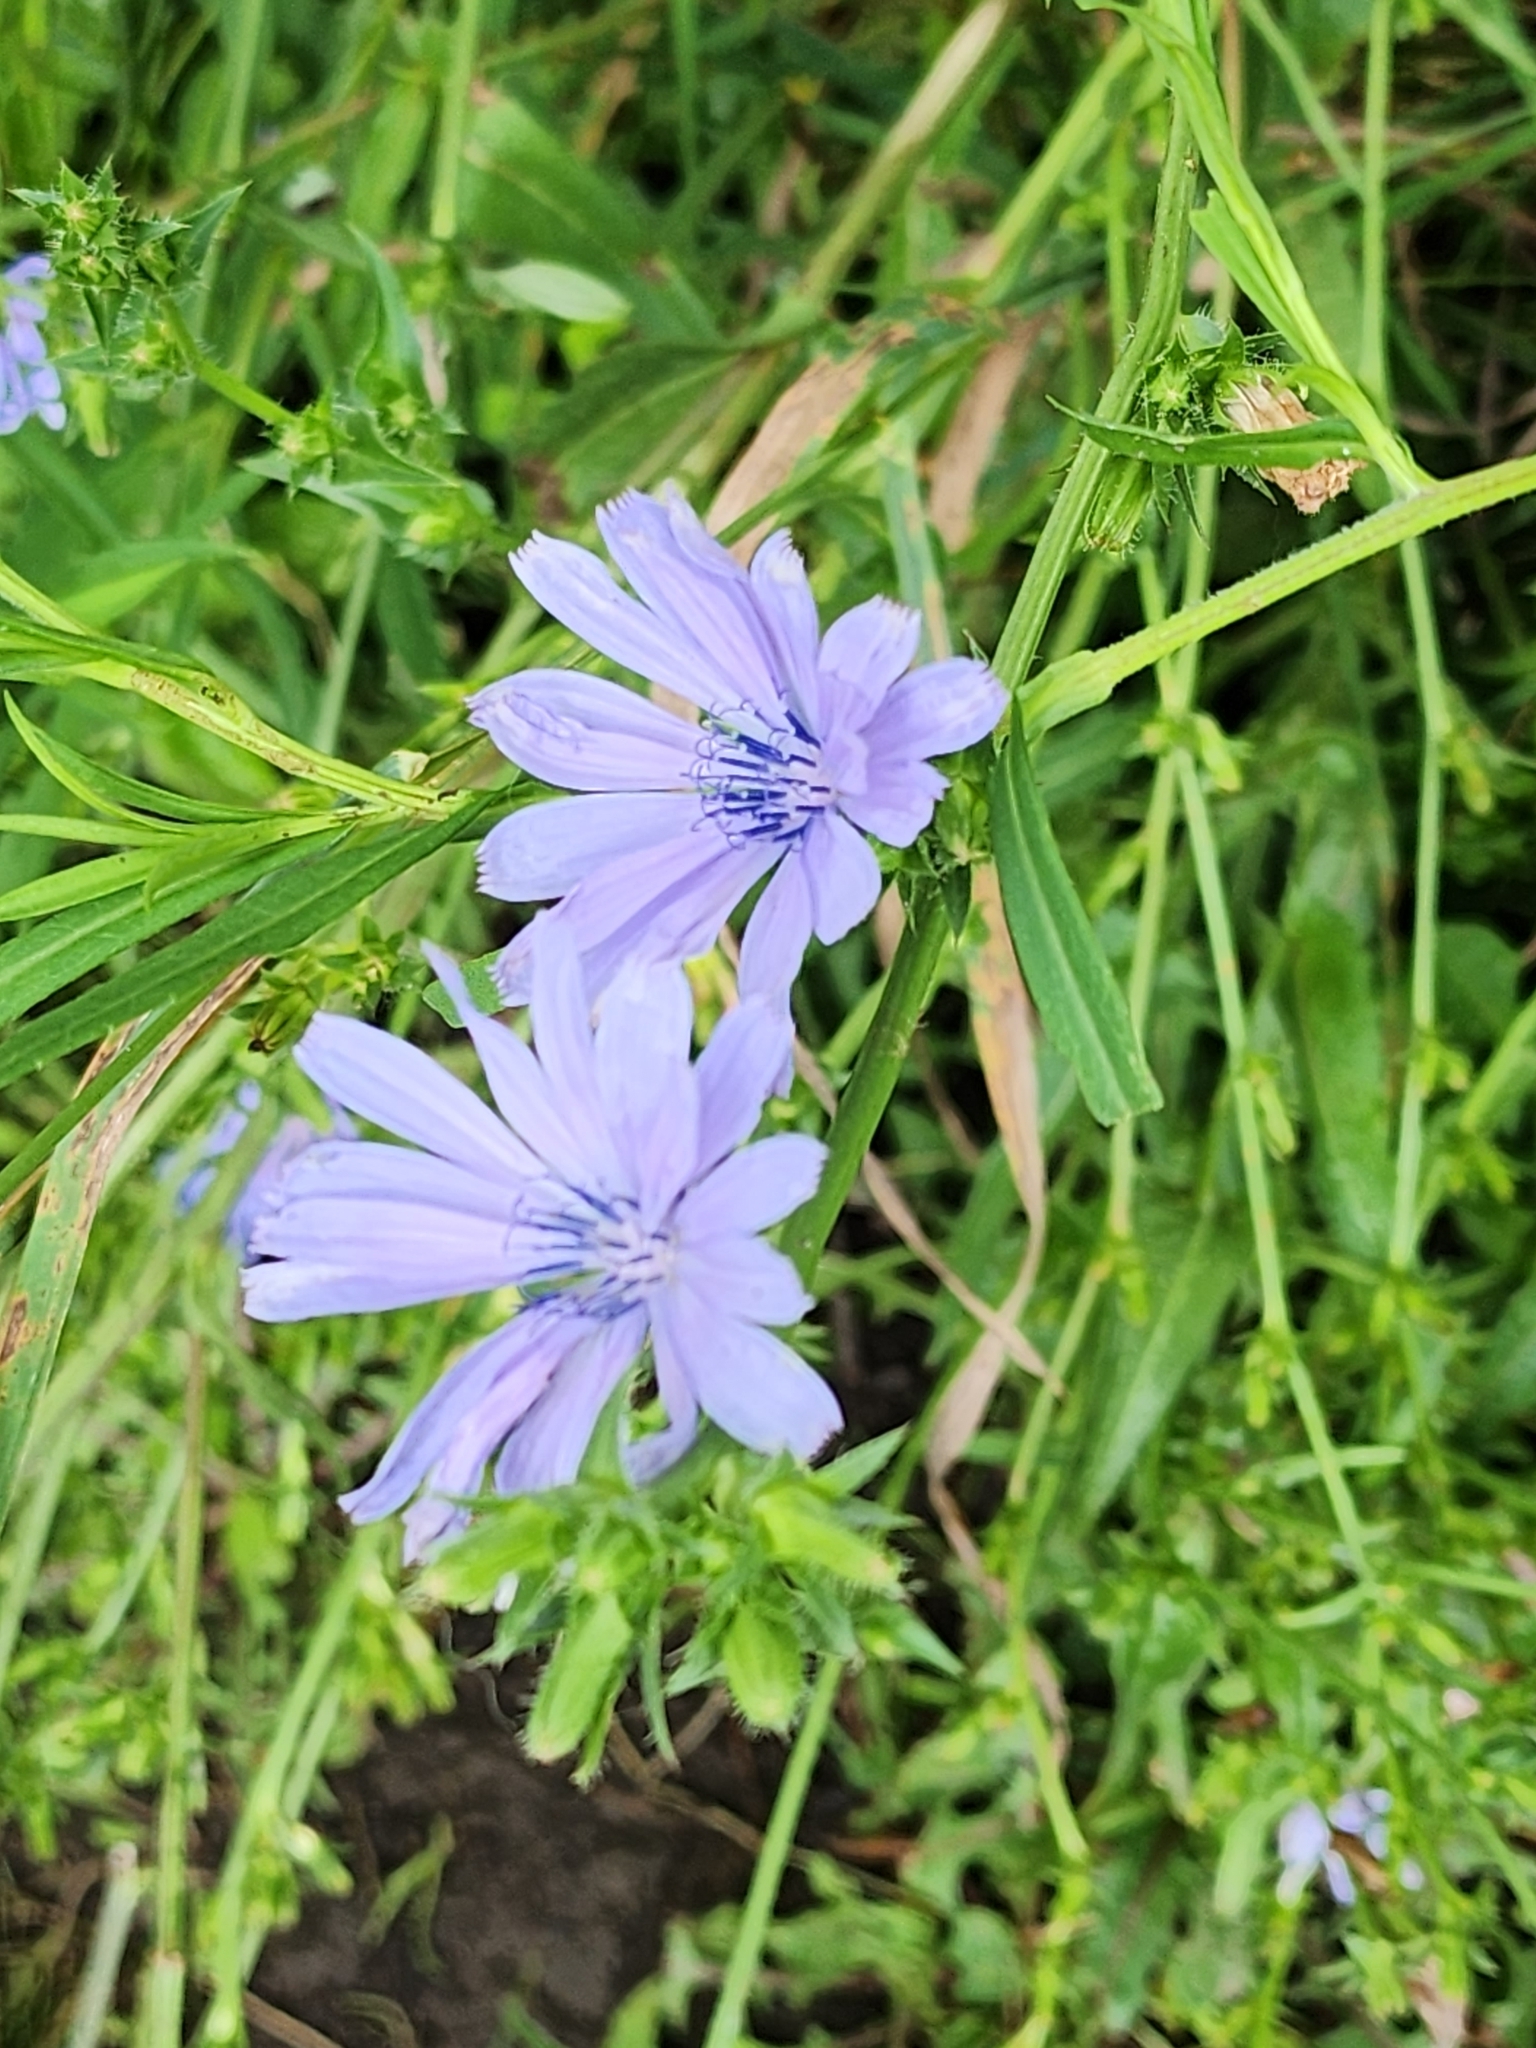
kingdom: Plantae
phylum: Tracheophyta
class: Magnoliopsida
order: Asterales
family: Asteraceae
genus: Cichorium
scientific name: Cichorium intybus
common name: Chicory
